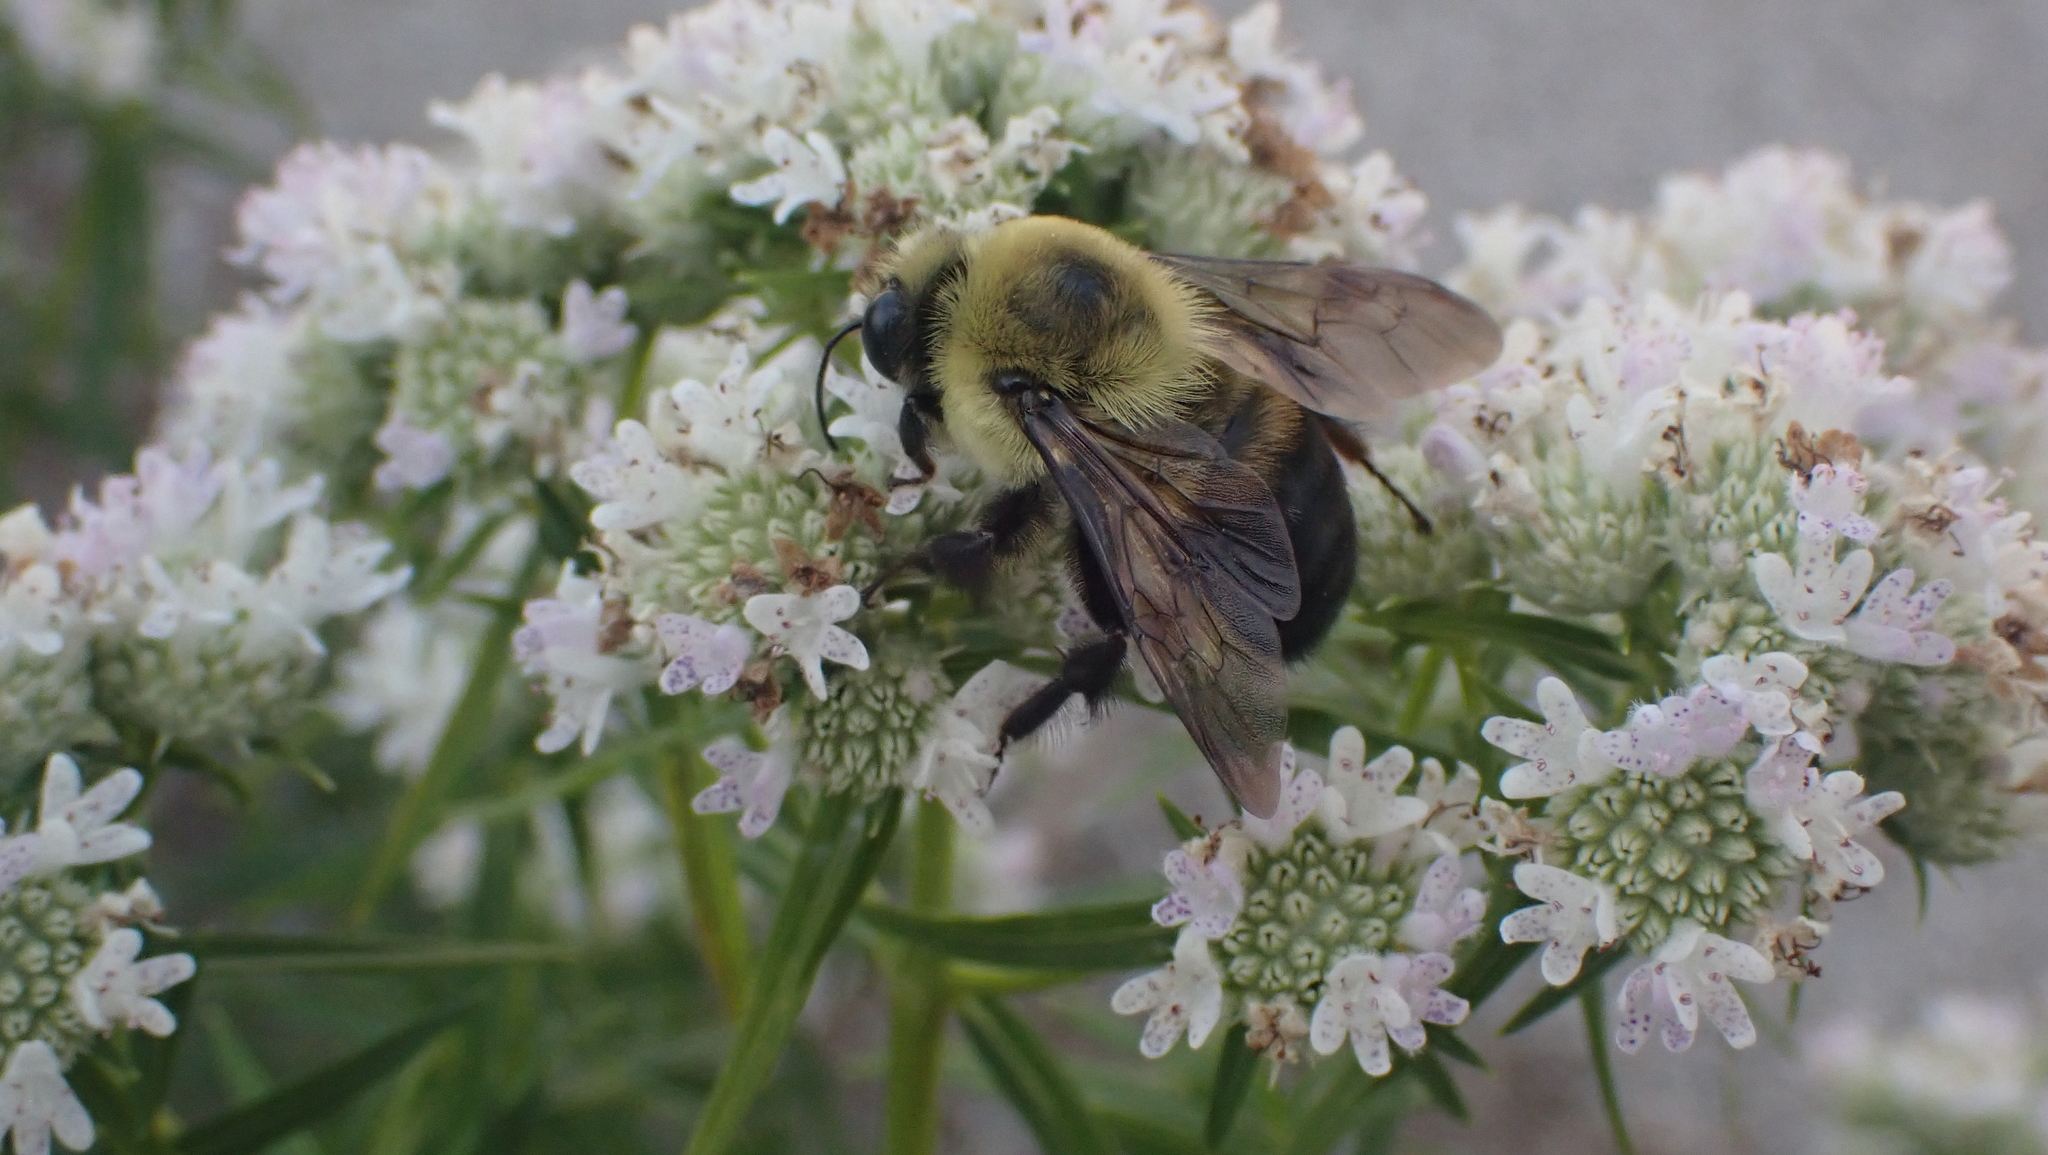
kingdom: Animalia
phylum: Arthropoda
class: Insecta
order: Hymenoptera
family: Apidae
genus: Bombus
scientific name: Bombus griseocollis
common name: Brown-belted bumble bee
